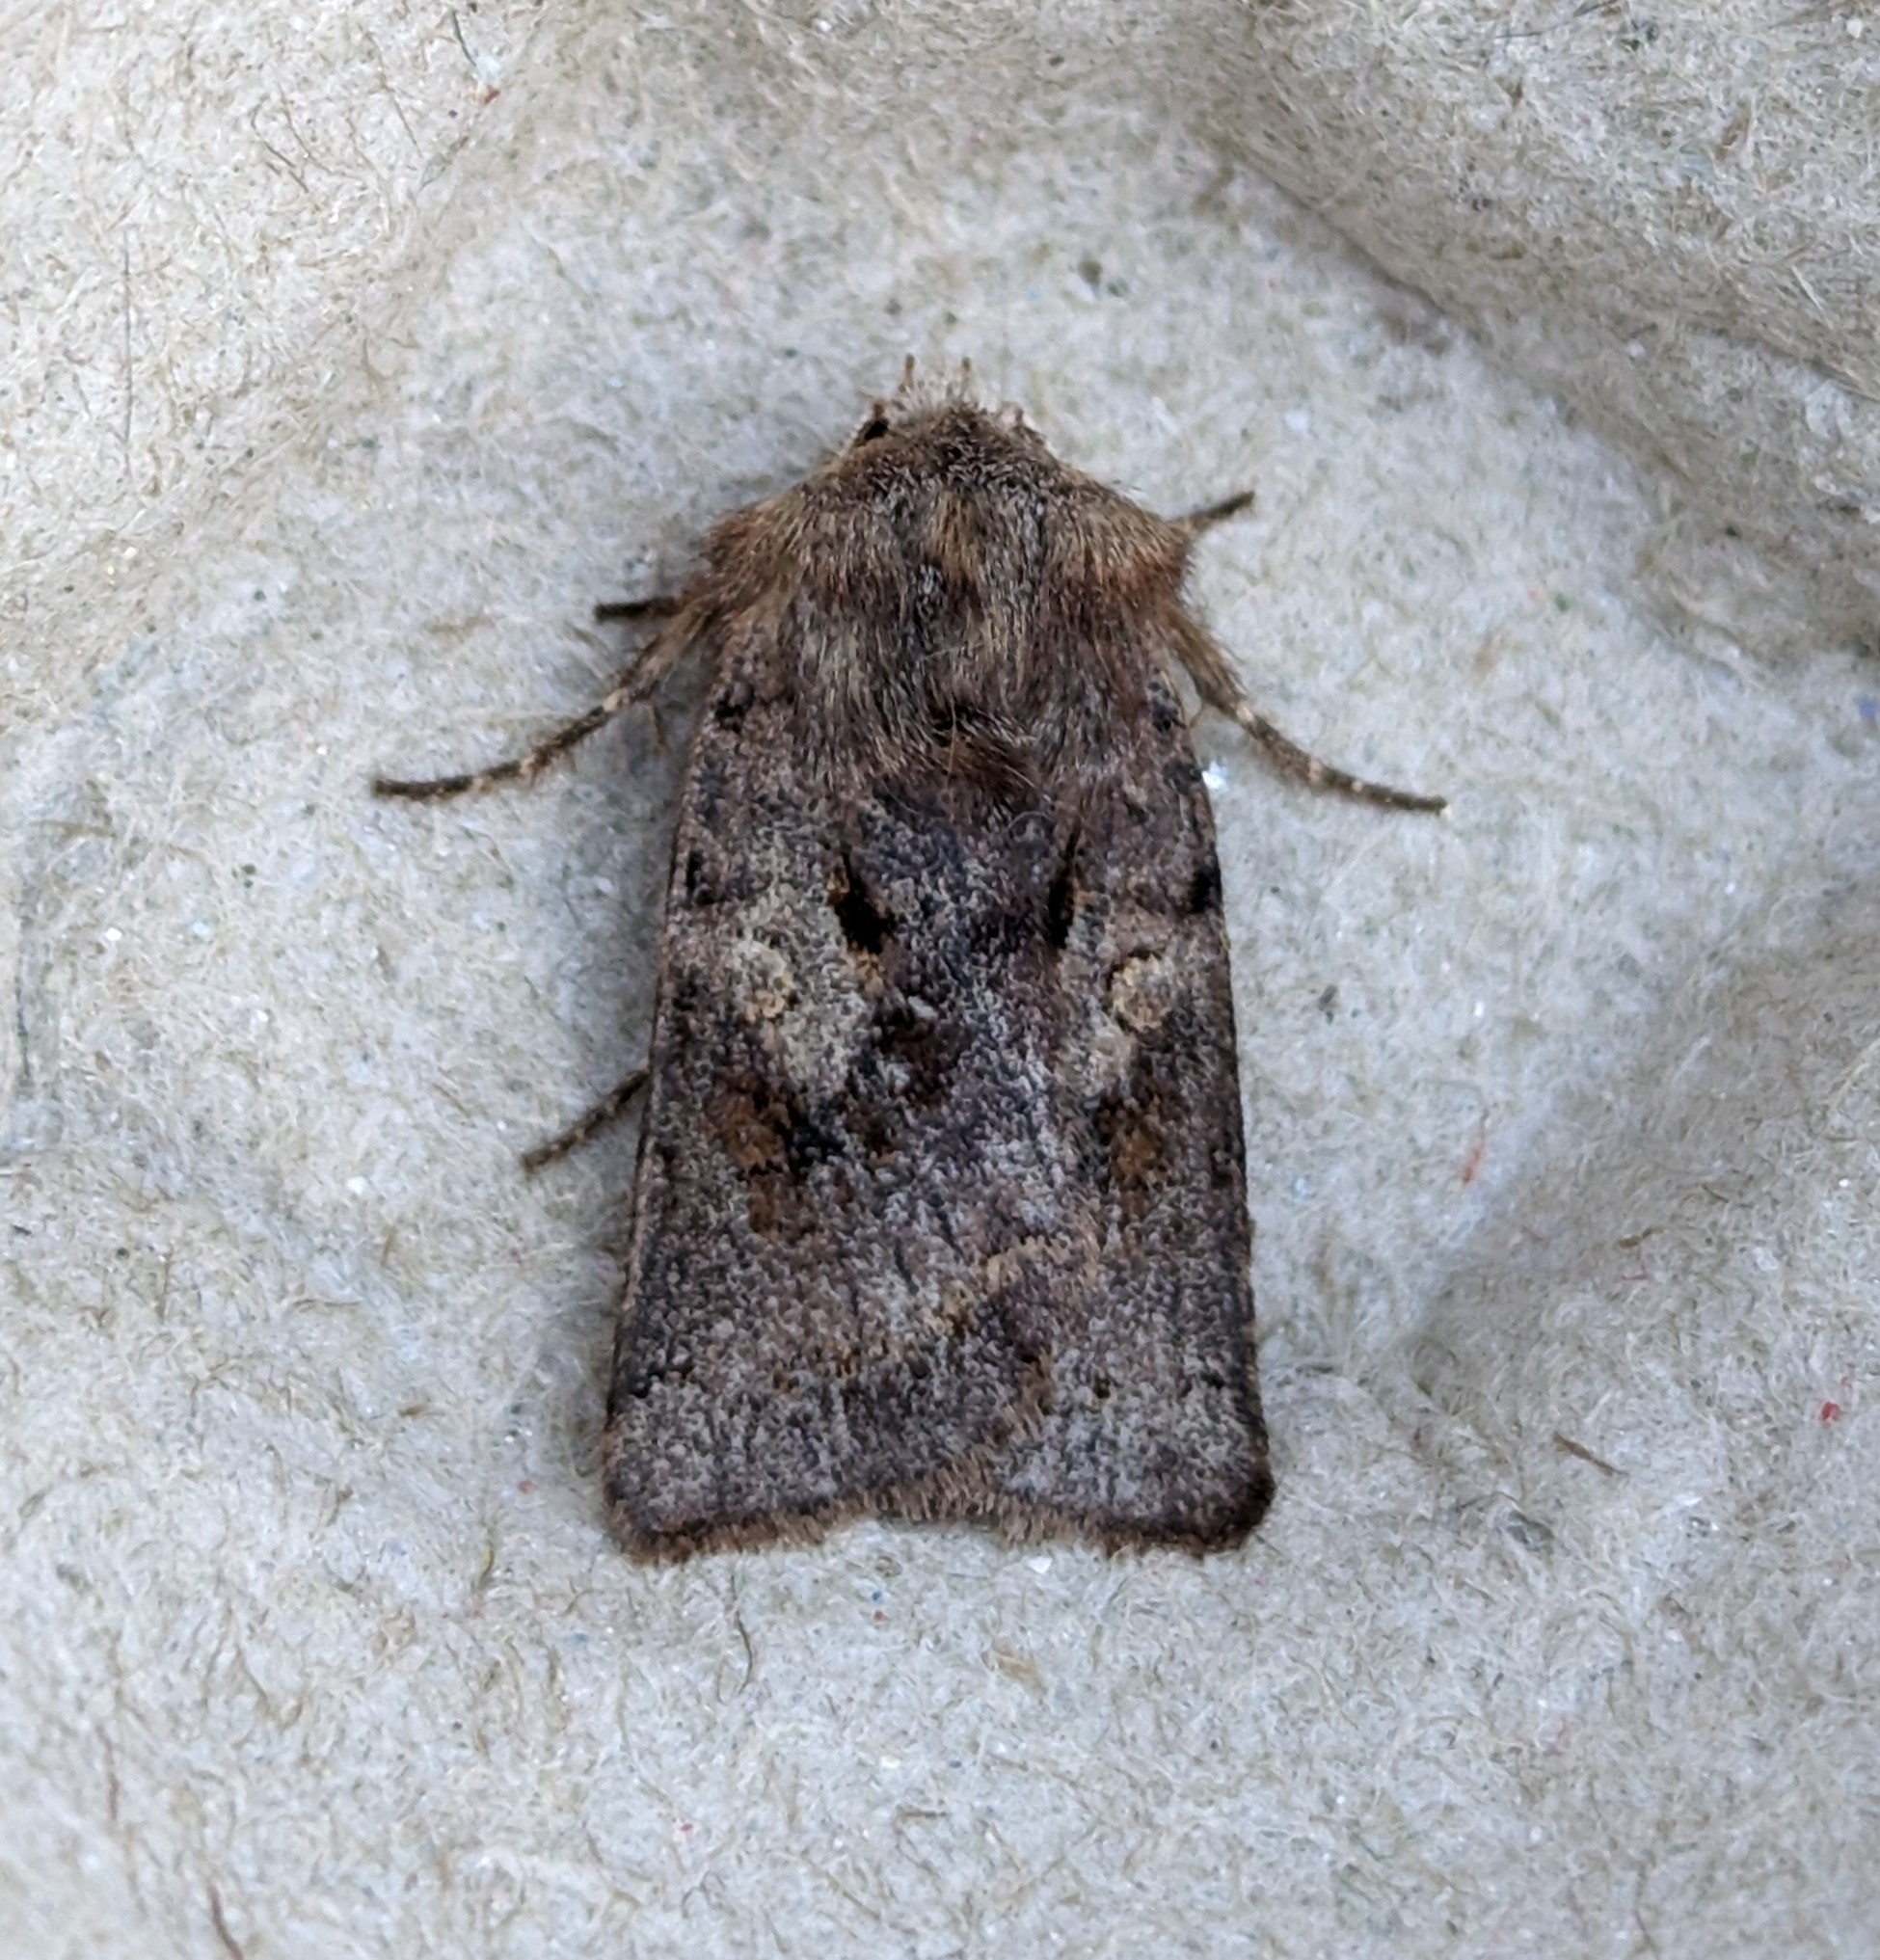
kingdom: Animalia
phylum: Arthropoda
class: Insecta
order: Lepidoptera
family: Noctuidae
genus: Cerastis
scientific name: Cerastis salicarum
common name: Willow dart
